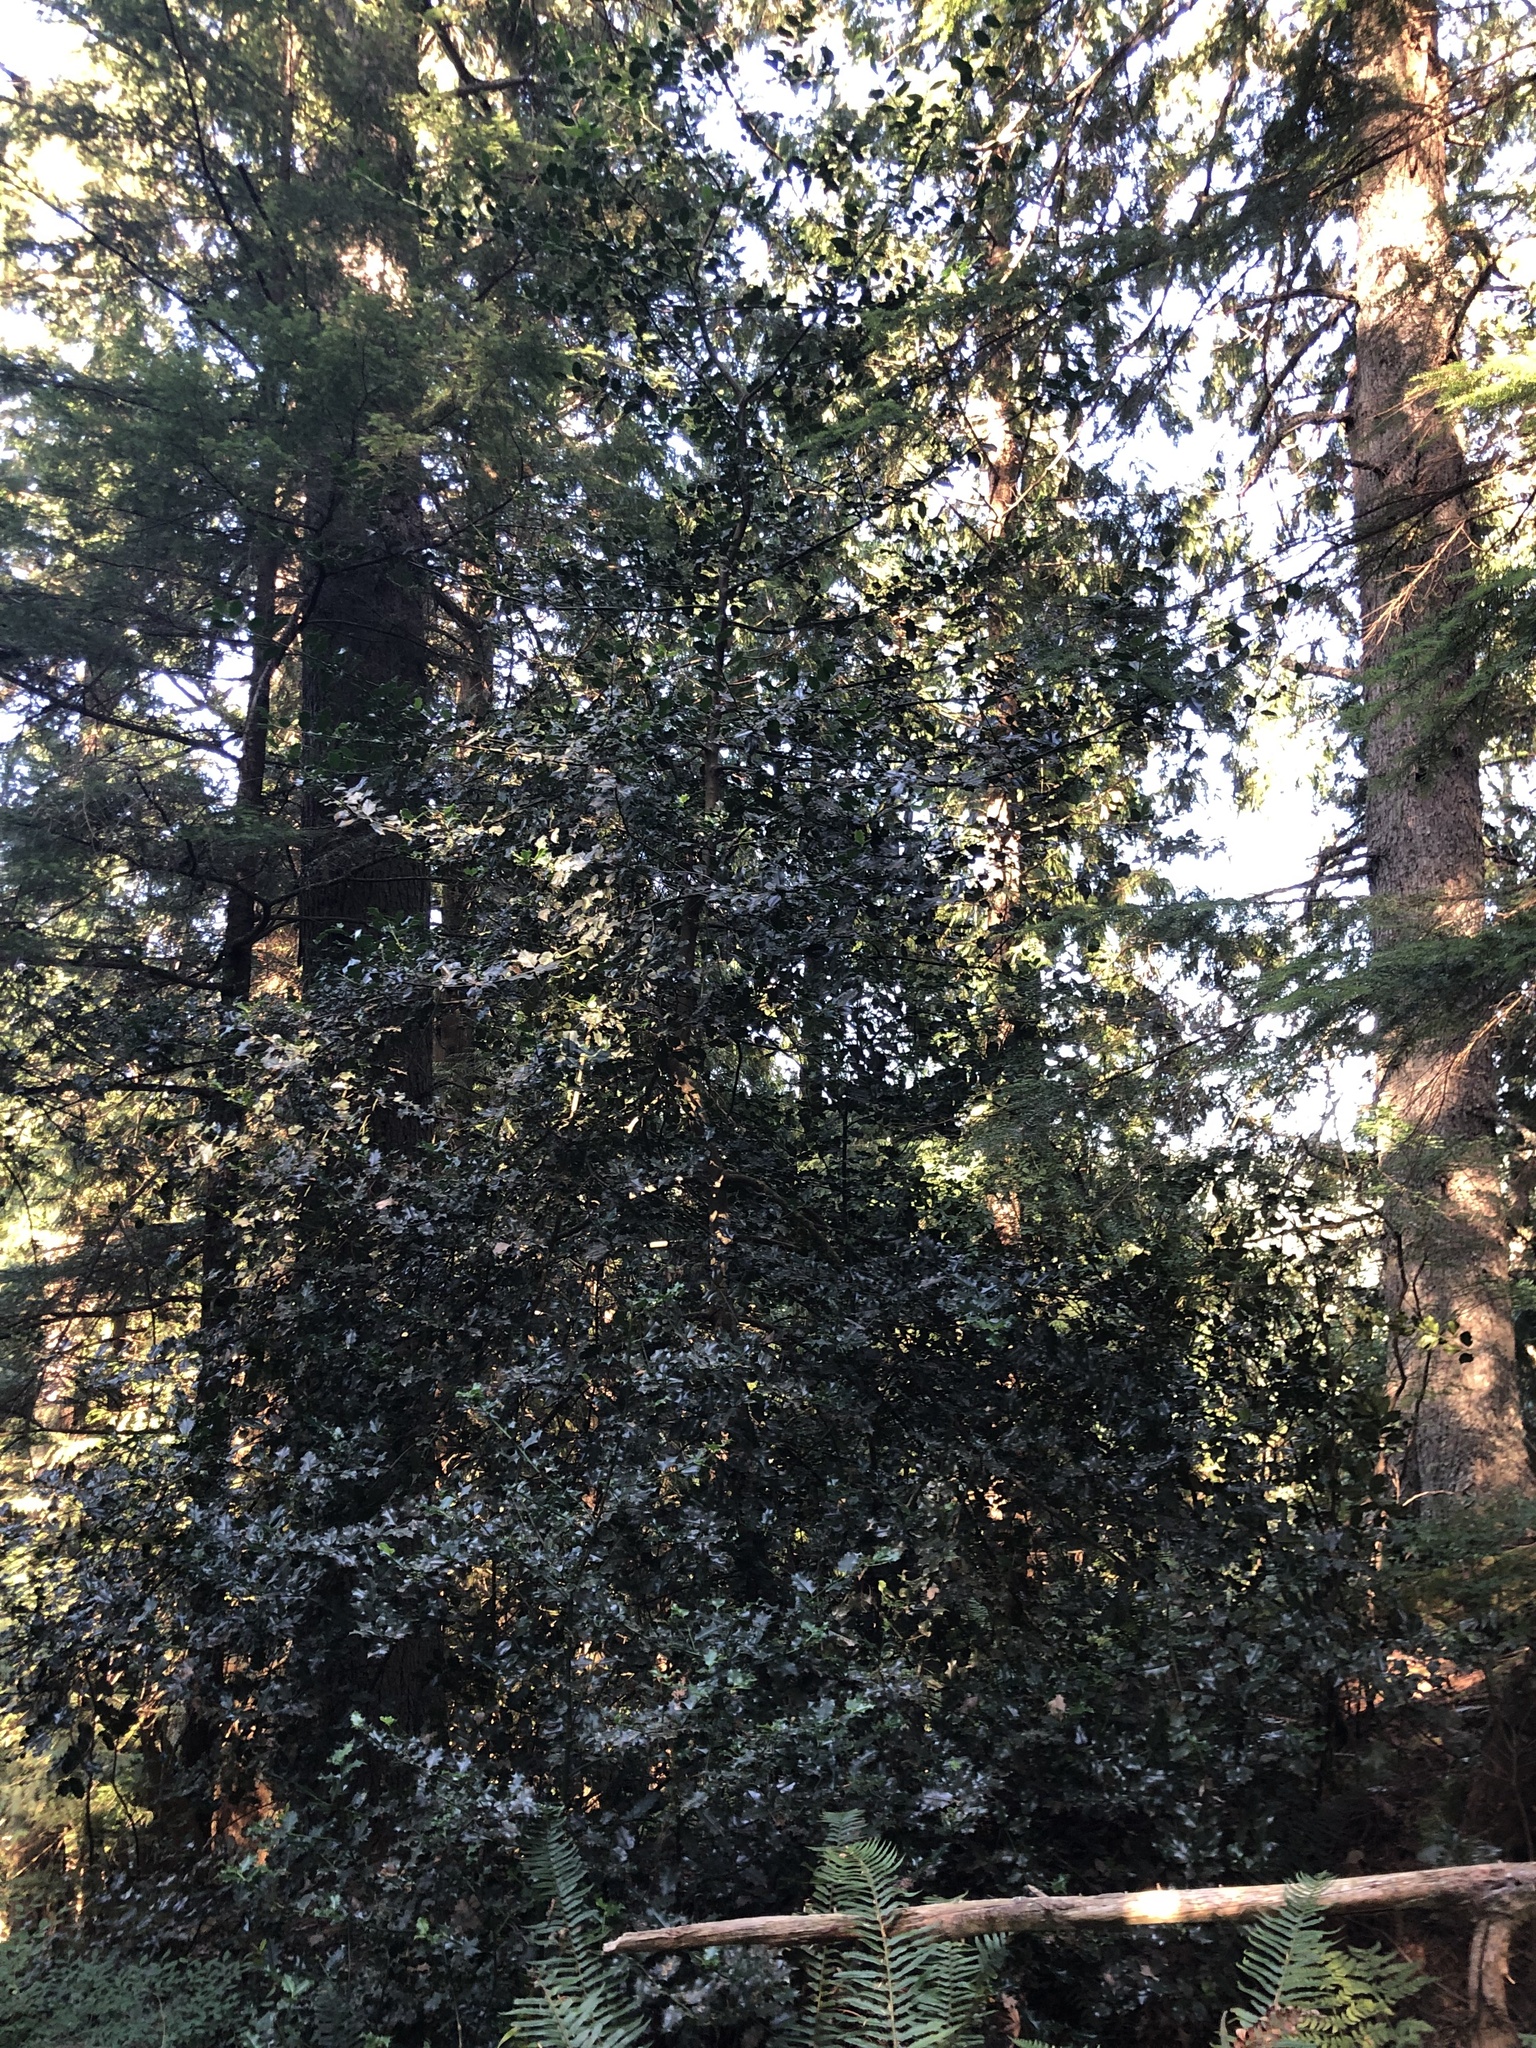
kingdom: Plantae
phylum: Tracheophyta
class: Magnoliopsida
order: Aquifoliales
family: Aquifoliaceae
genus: Ilex
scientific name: Ilex aquifolium
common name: English holly
